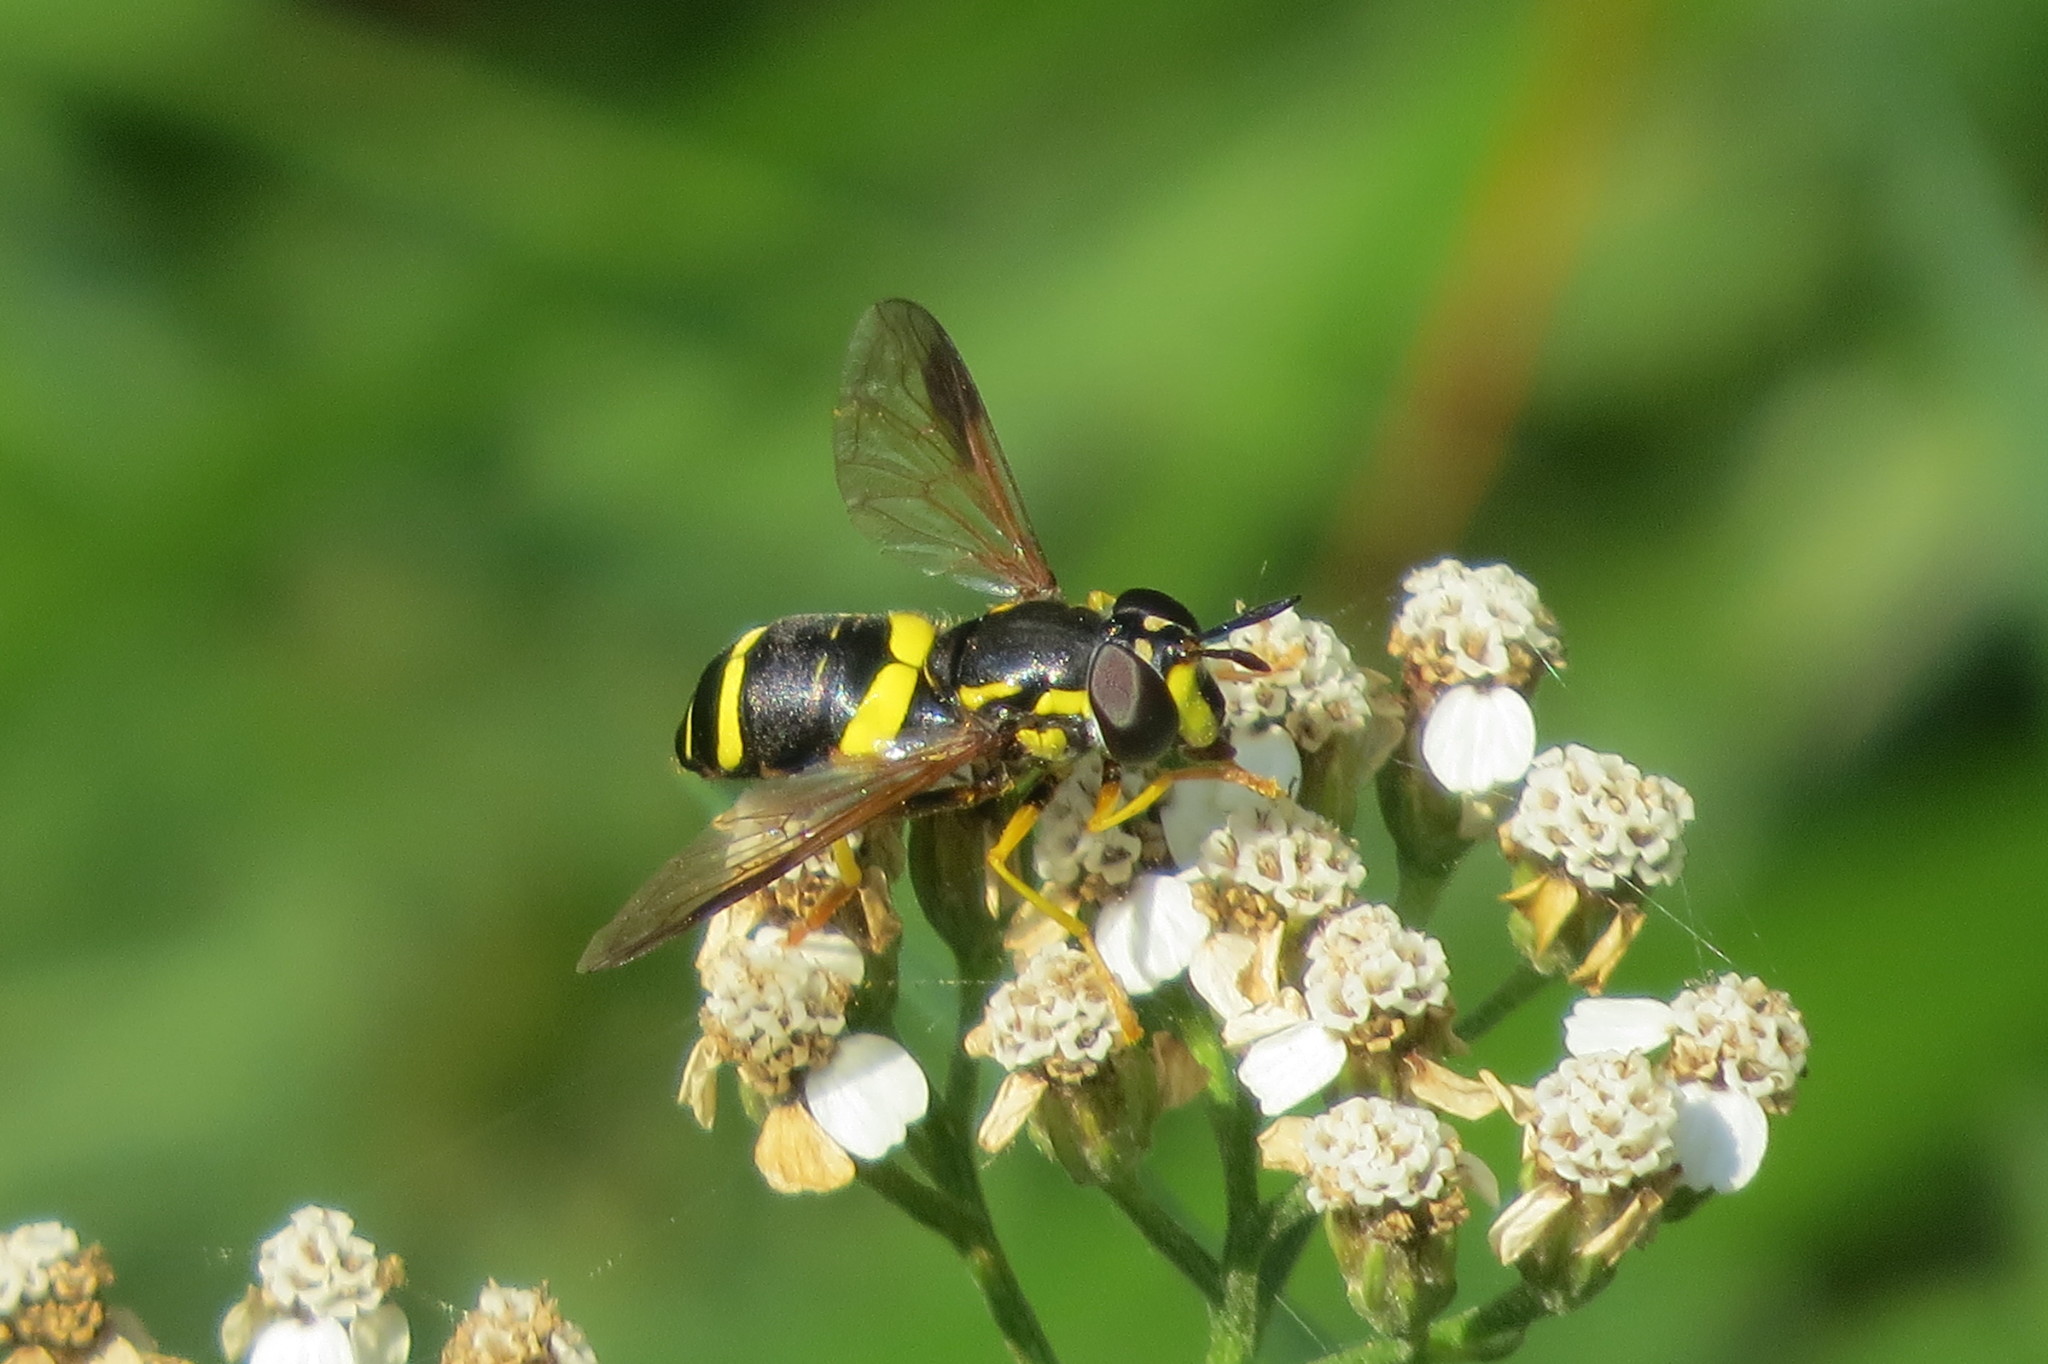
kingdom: Animalia
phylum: Arthropoda
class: Insecta
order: Diptera
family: Syrphidae
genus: Chrysotoxum
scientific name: Chrysotoxum bicincta
